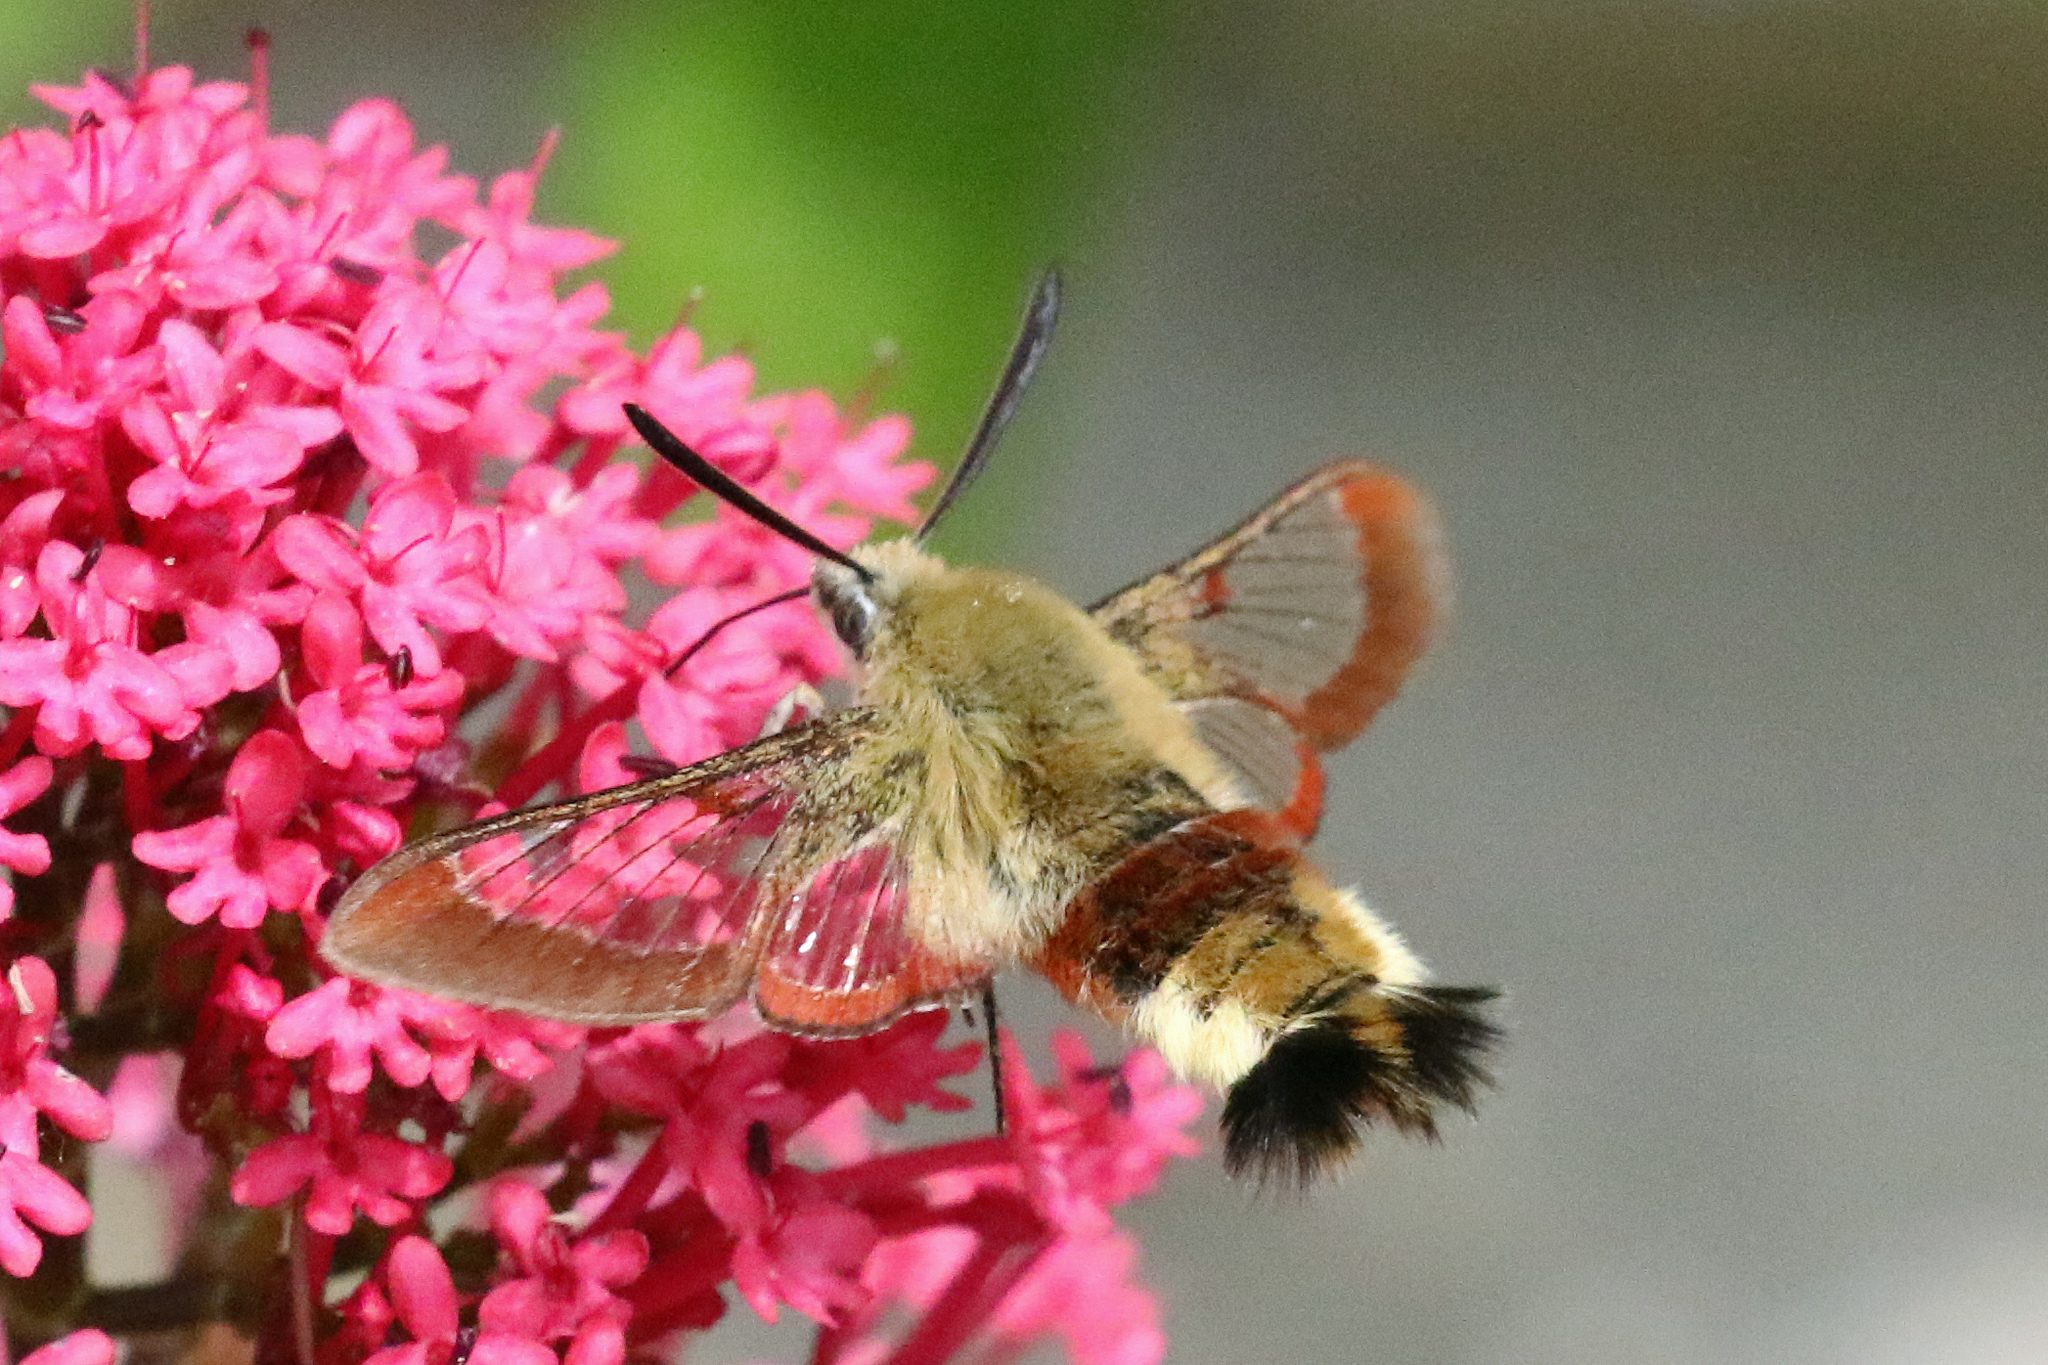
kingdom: Animalia
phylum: Arthropoda
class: Insecta
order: Lepidoptera
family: Sphingidae
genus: Hemaris
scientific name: Hemaris fuciformis
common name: Broad-bordered bee hawk-moth
